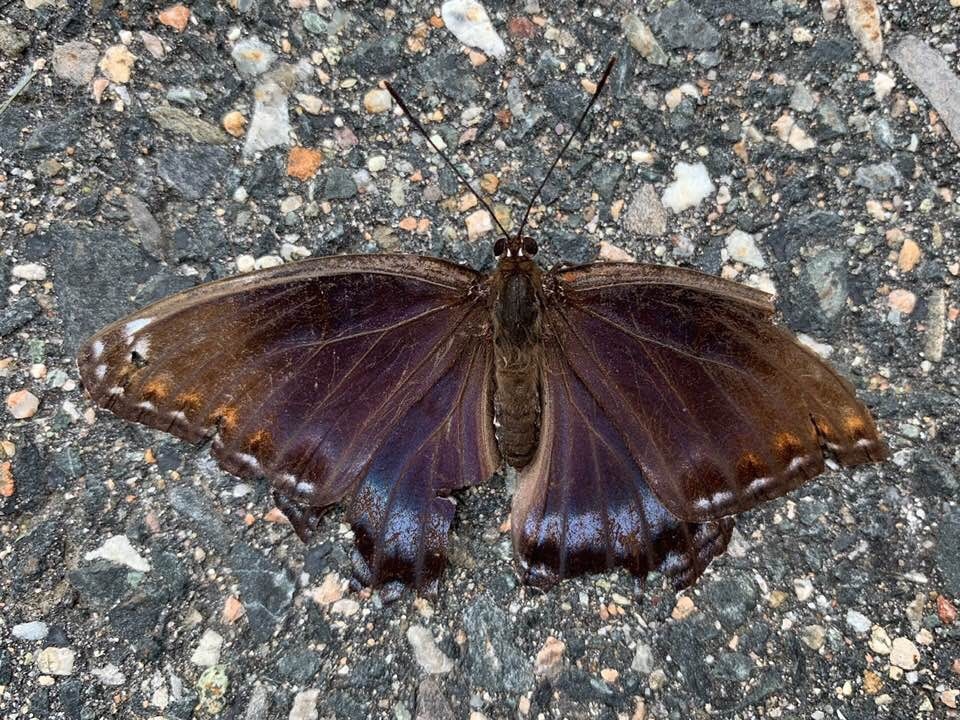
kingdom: Animalia
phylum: Arthropoda
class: Insecta
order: Lepidoptera
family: Nymphalidae
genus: Limenitis
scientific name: Limenitis arthemis
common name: Red-spotted admiral
